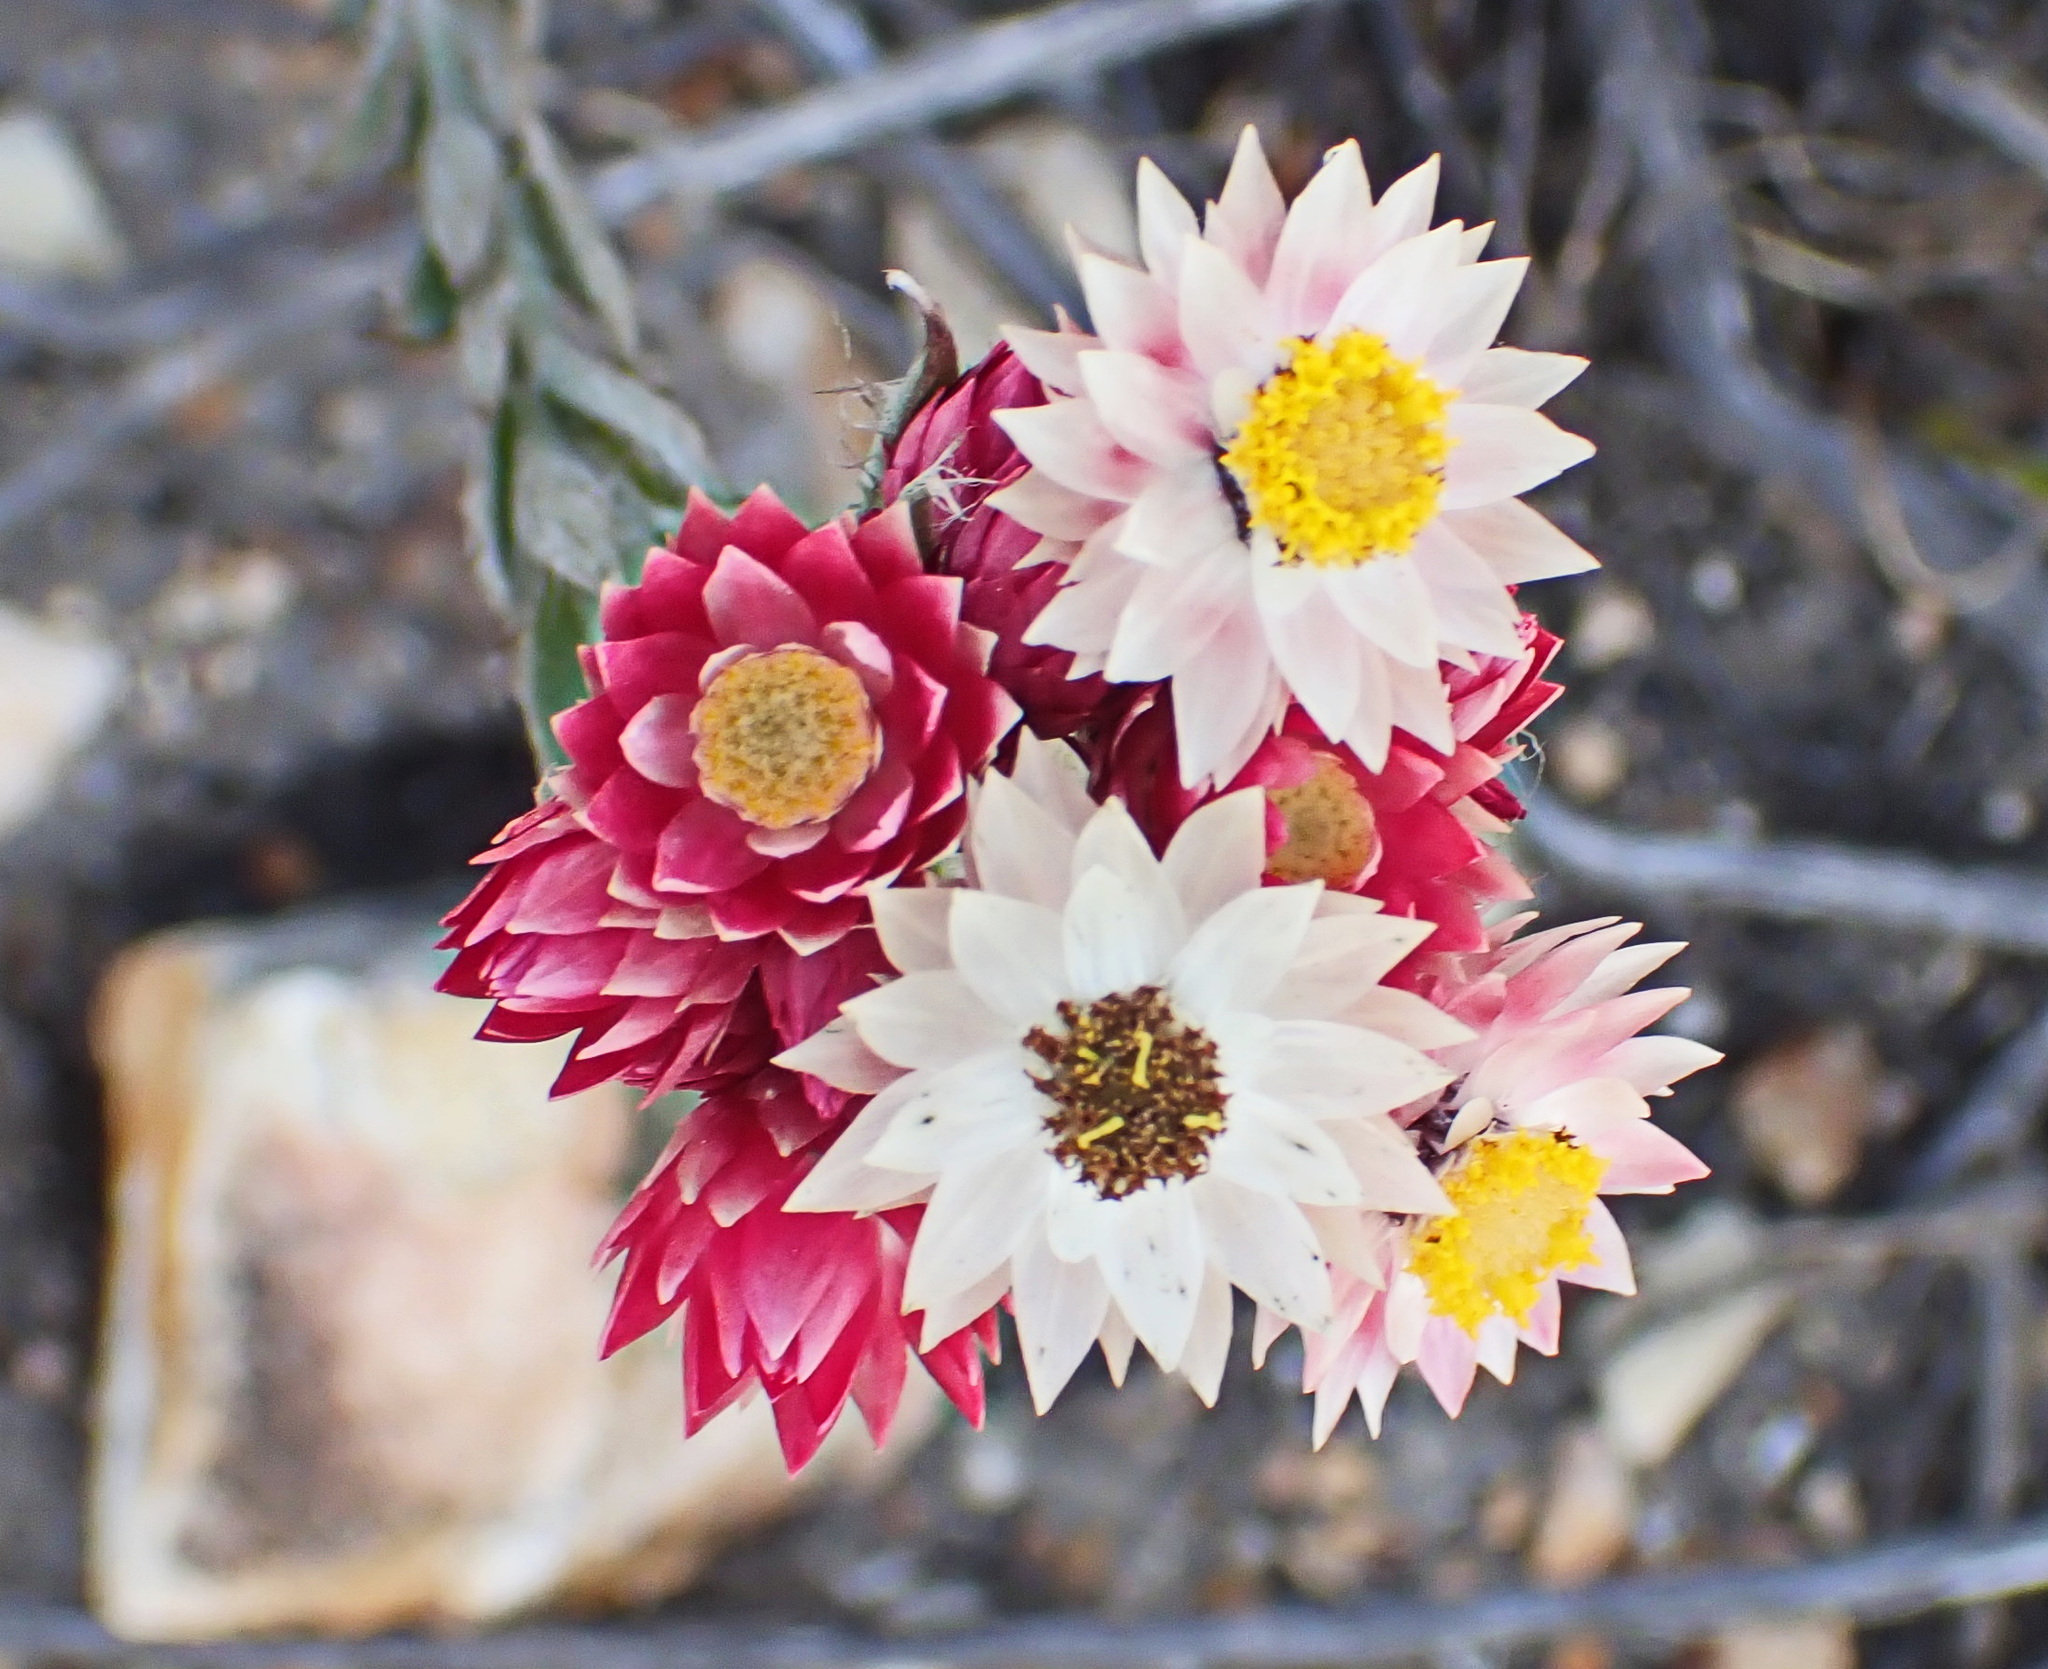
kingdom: Plantae
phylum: Tracheophyta
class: Magnoliopsida
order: Asterales
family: Asteraceae
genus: Achyranthemum
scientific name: Achyranthemum paniculatum
